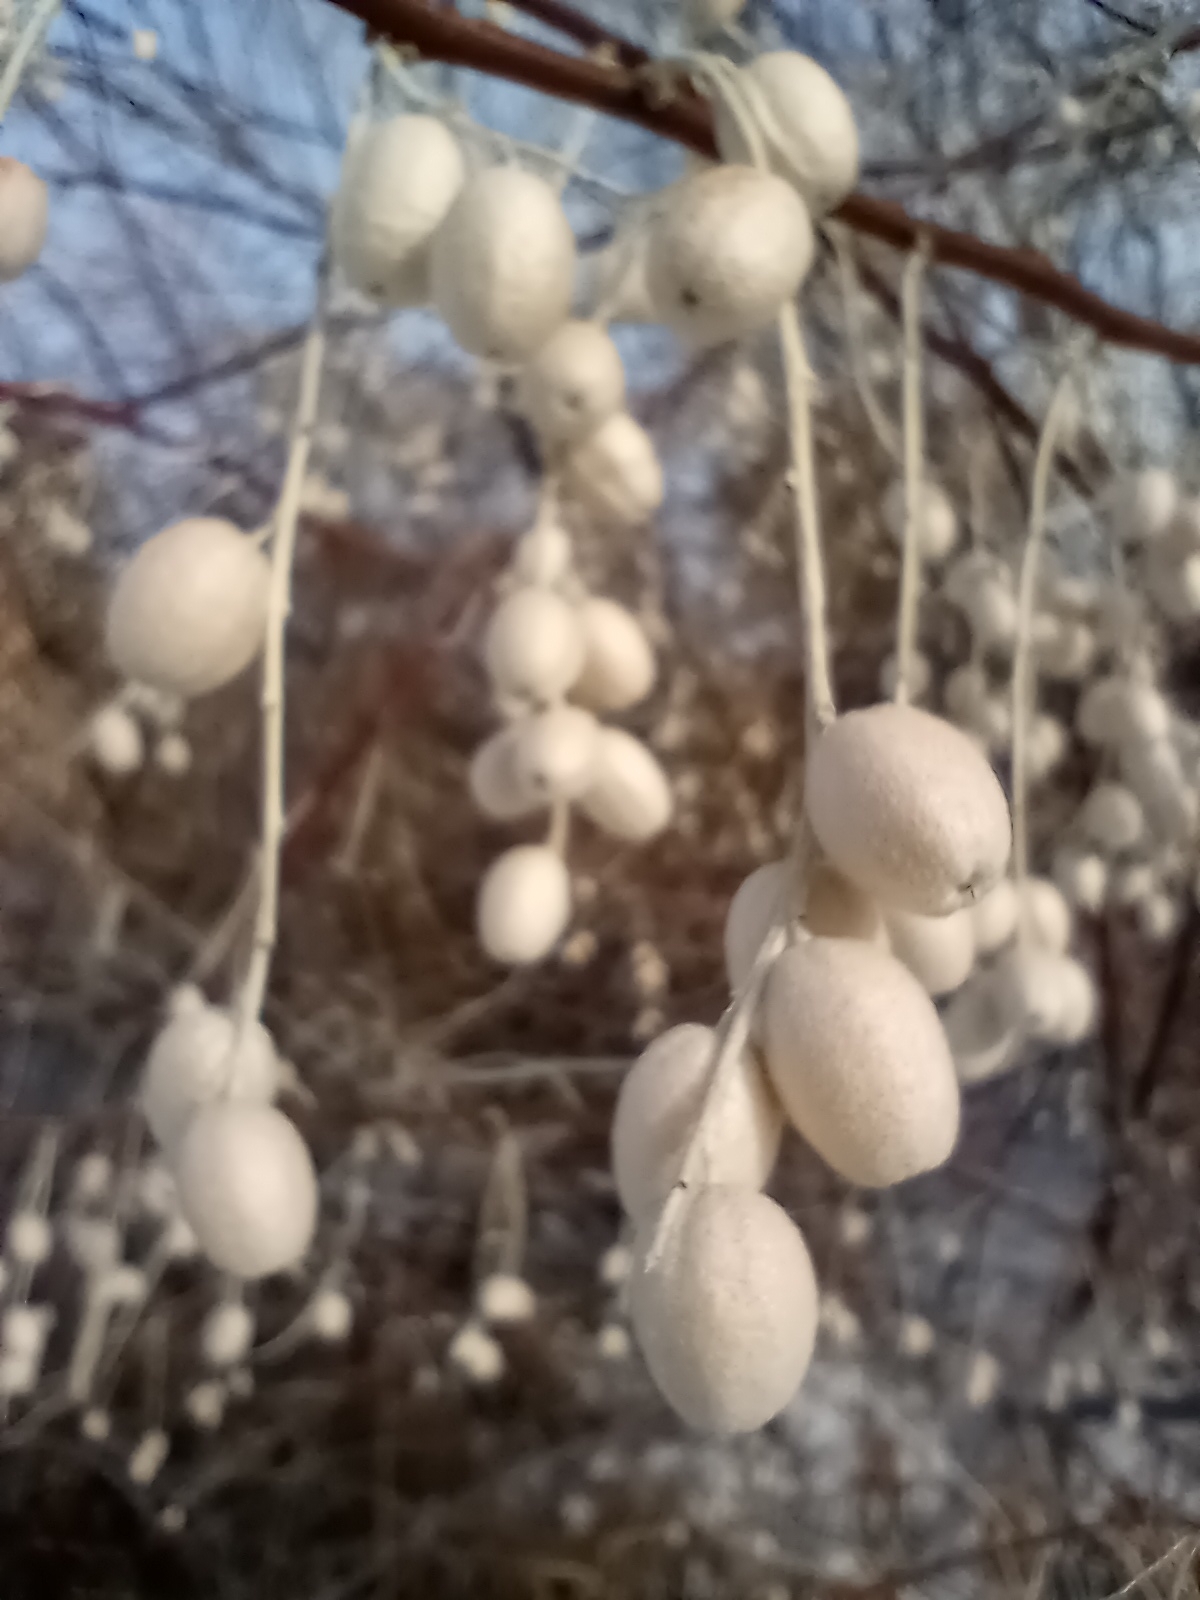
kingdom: Plantae
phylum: Tracheophyta
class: Magnoliopsida
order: Rosales
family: Elaeagnaceae
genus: Elaeagnus
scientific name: Elaeagnus angustifolia
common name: Russian olive
